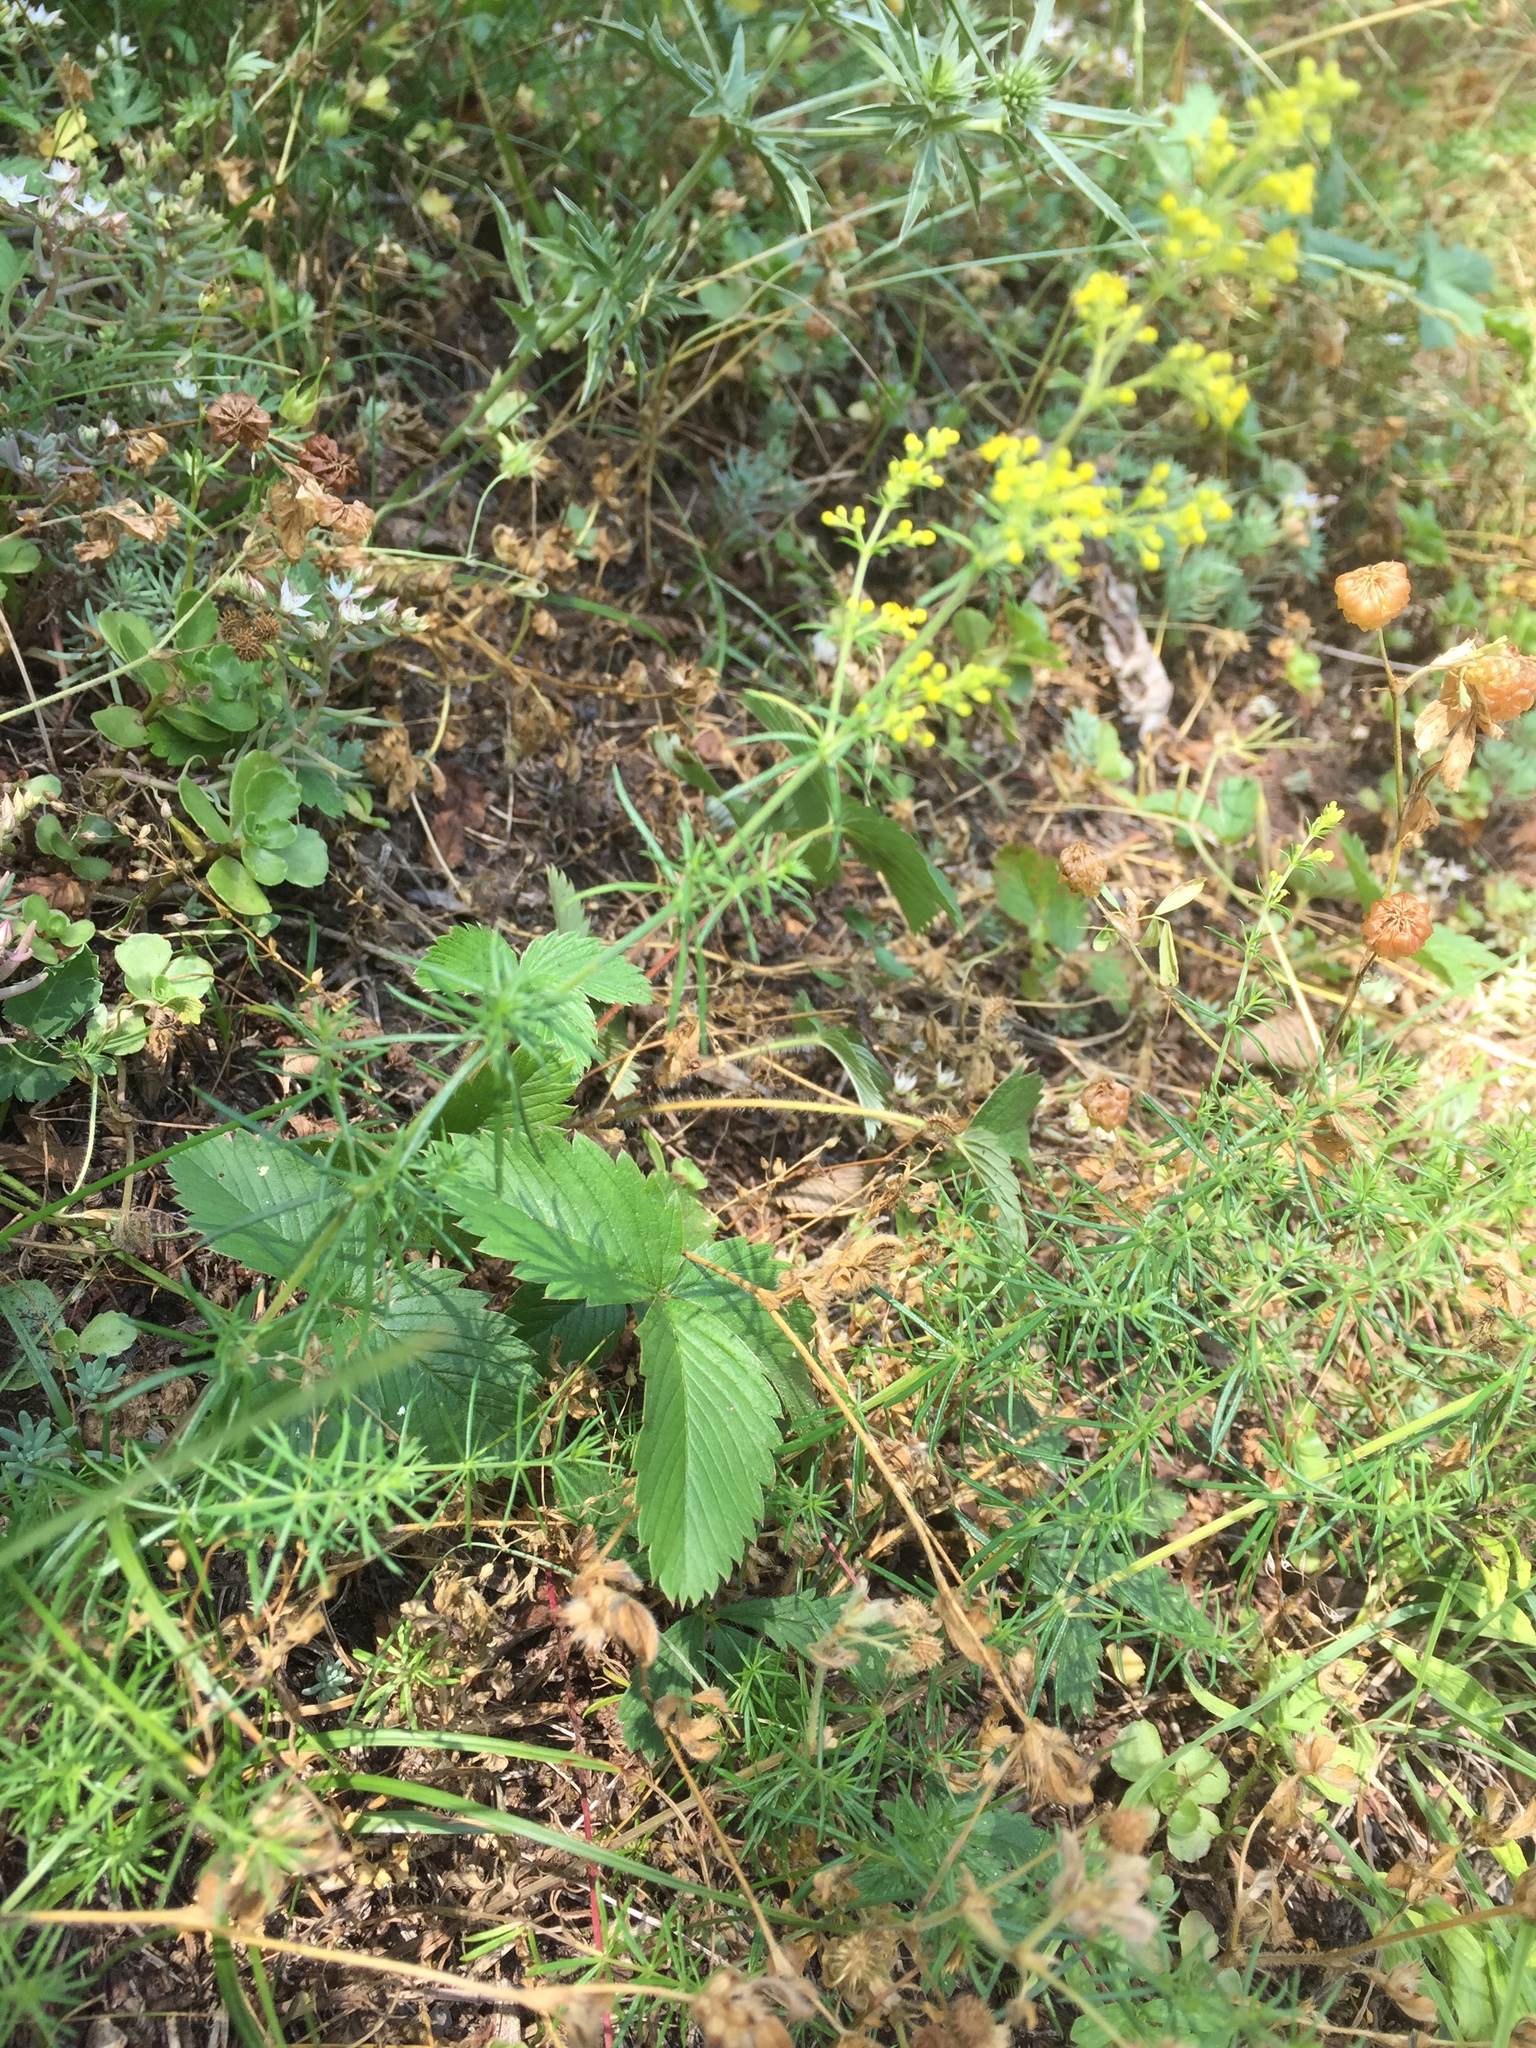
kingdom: Plantae
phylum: Tracheophyta
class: Magnoliopsida
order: Gentianales
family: Rubiaceae
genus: Galium
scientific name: Galium verum
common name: Lady's bedstraw
